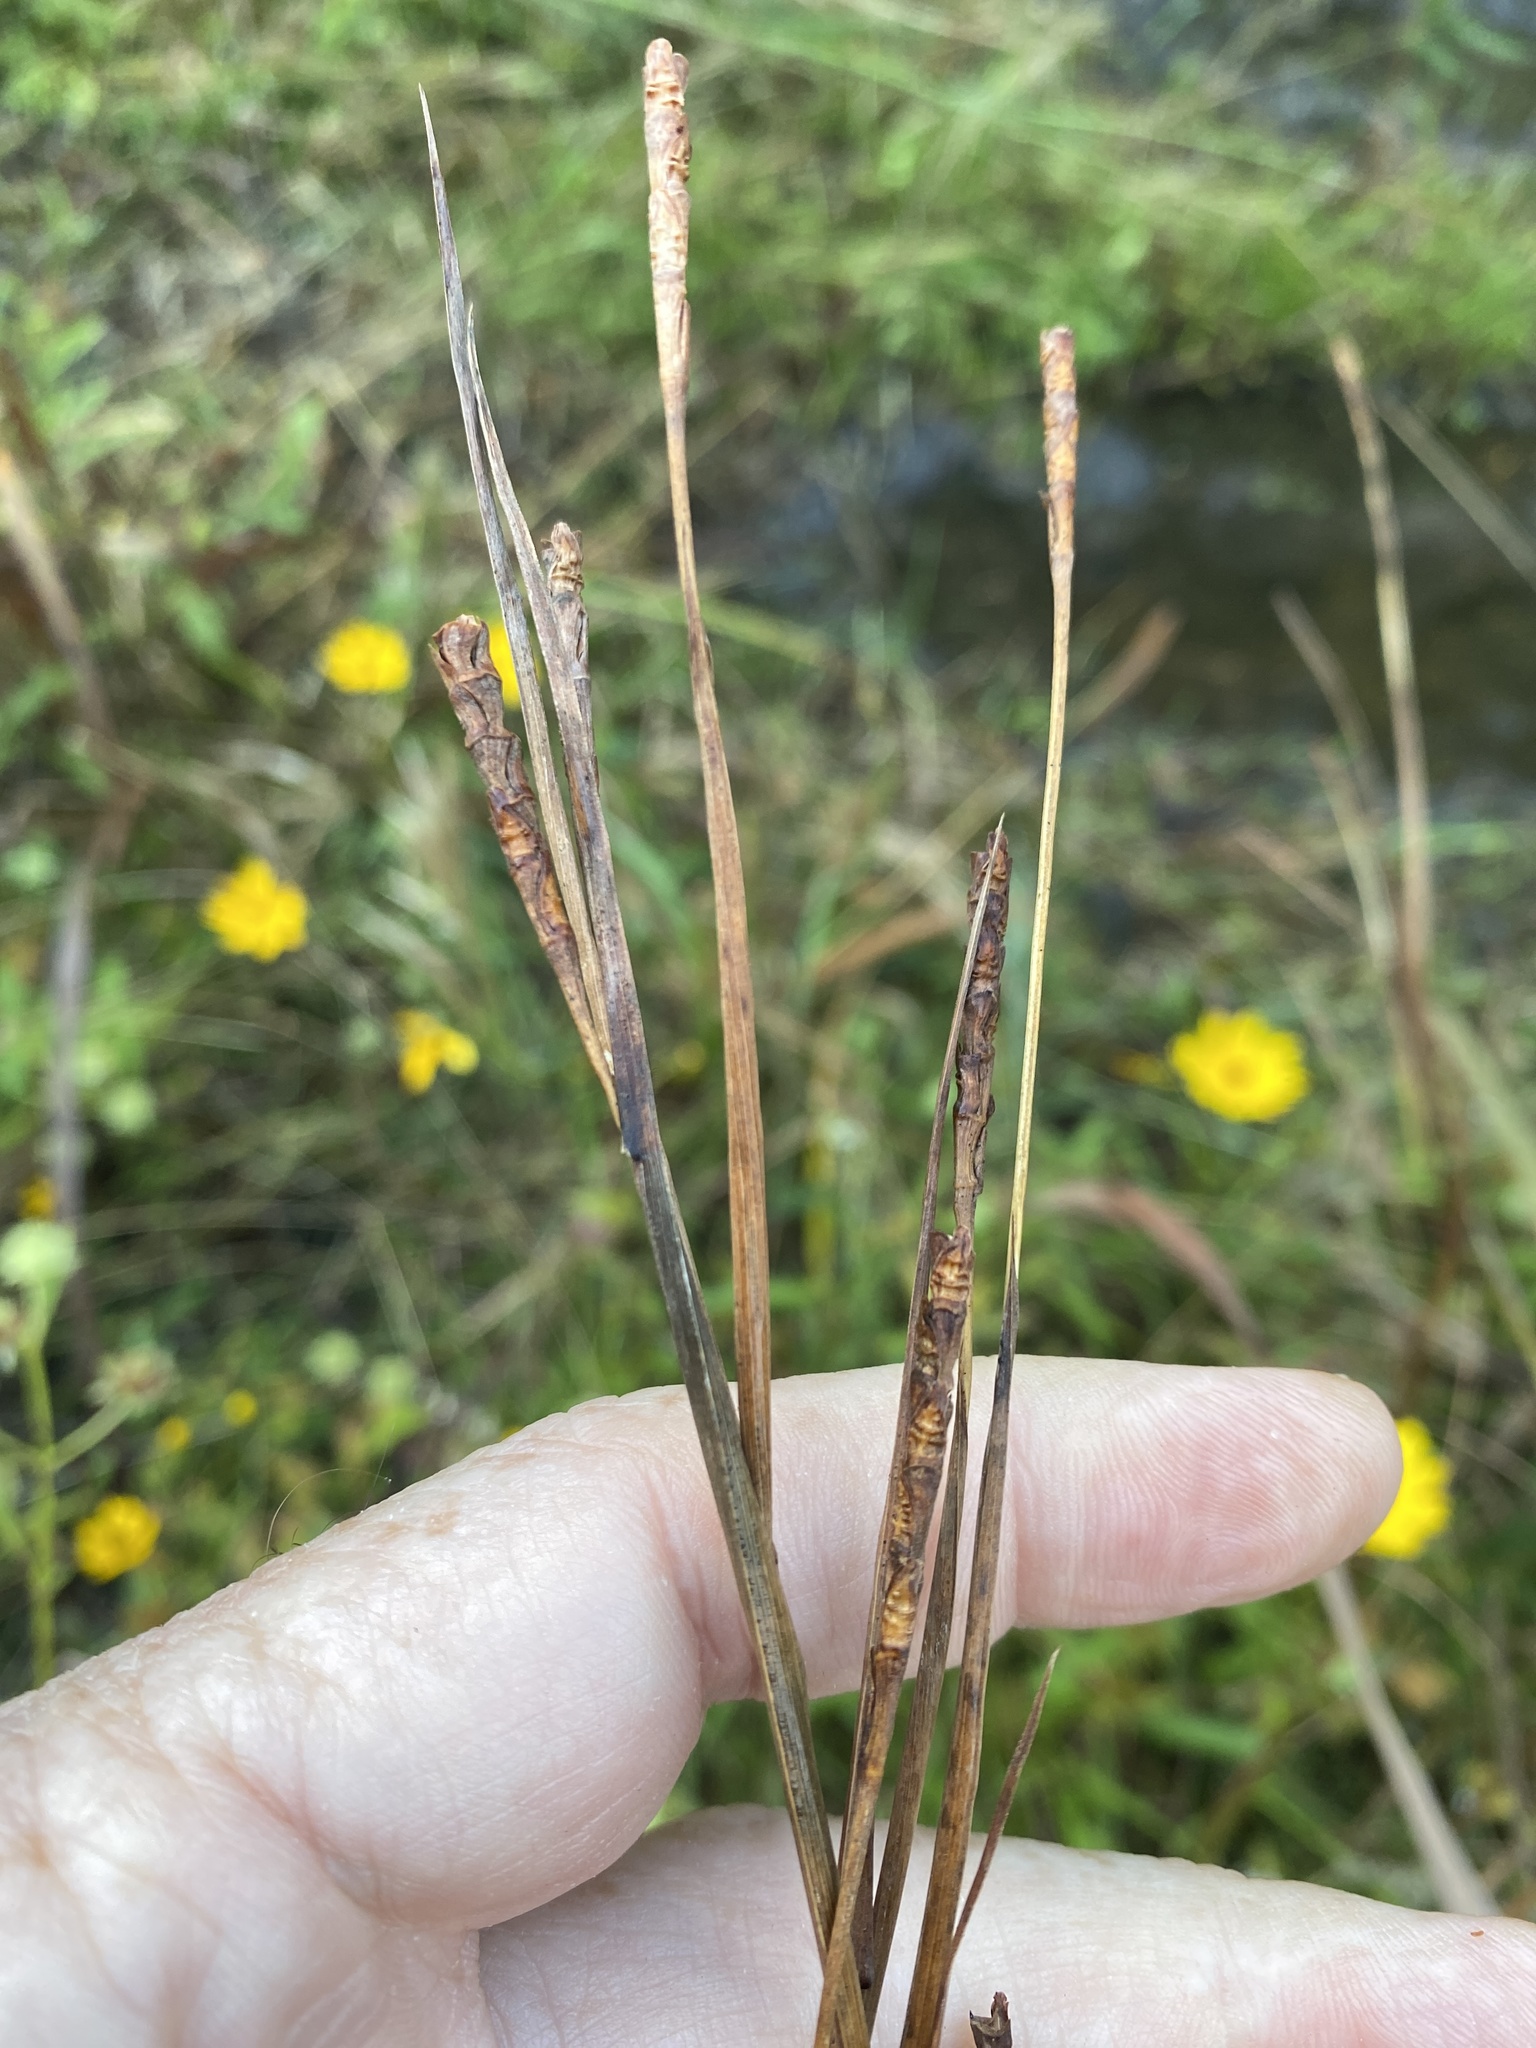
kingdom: Plantae
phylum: Tracheophyta
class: Liliopsida
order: Poales
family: Poaceae
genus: Rottboellia
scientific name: Rottboellia rugosa
